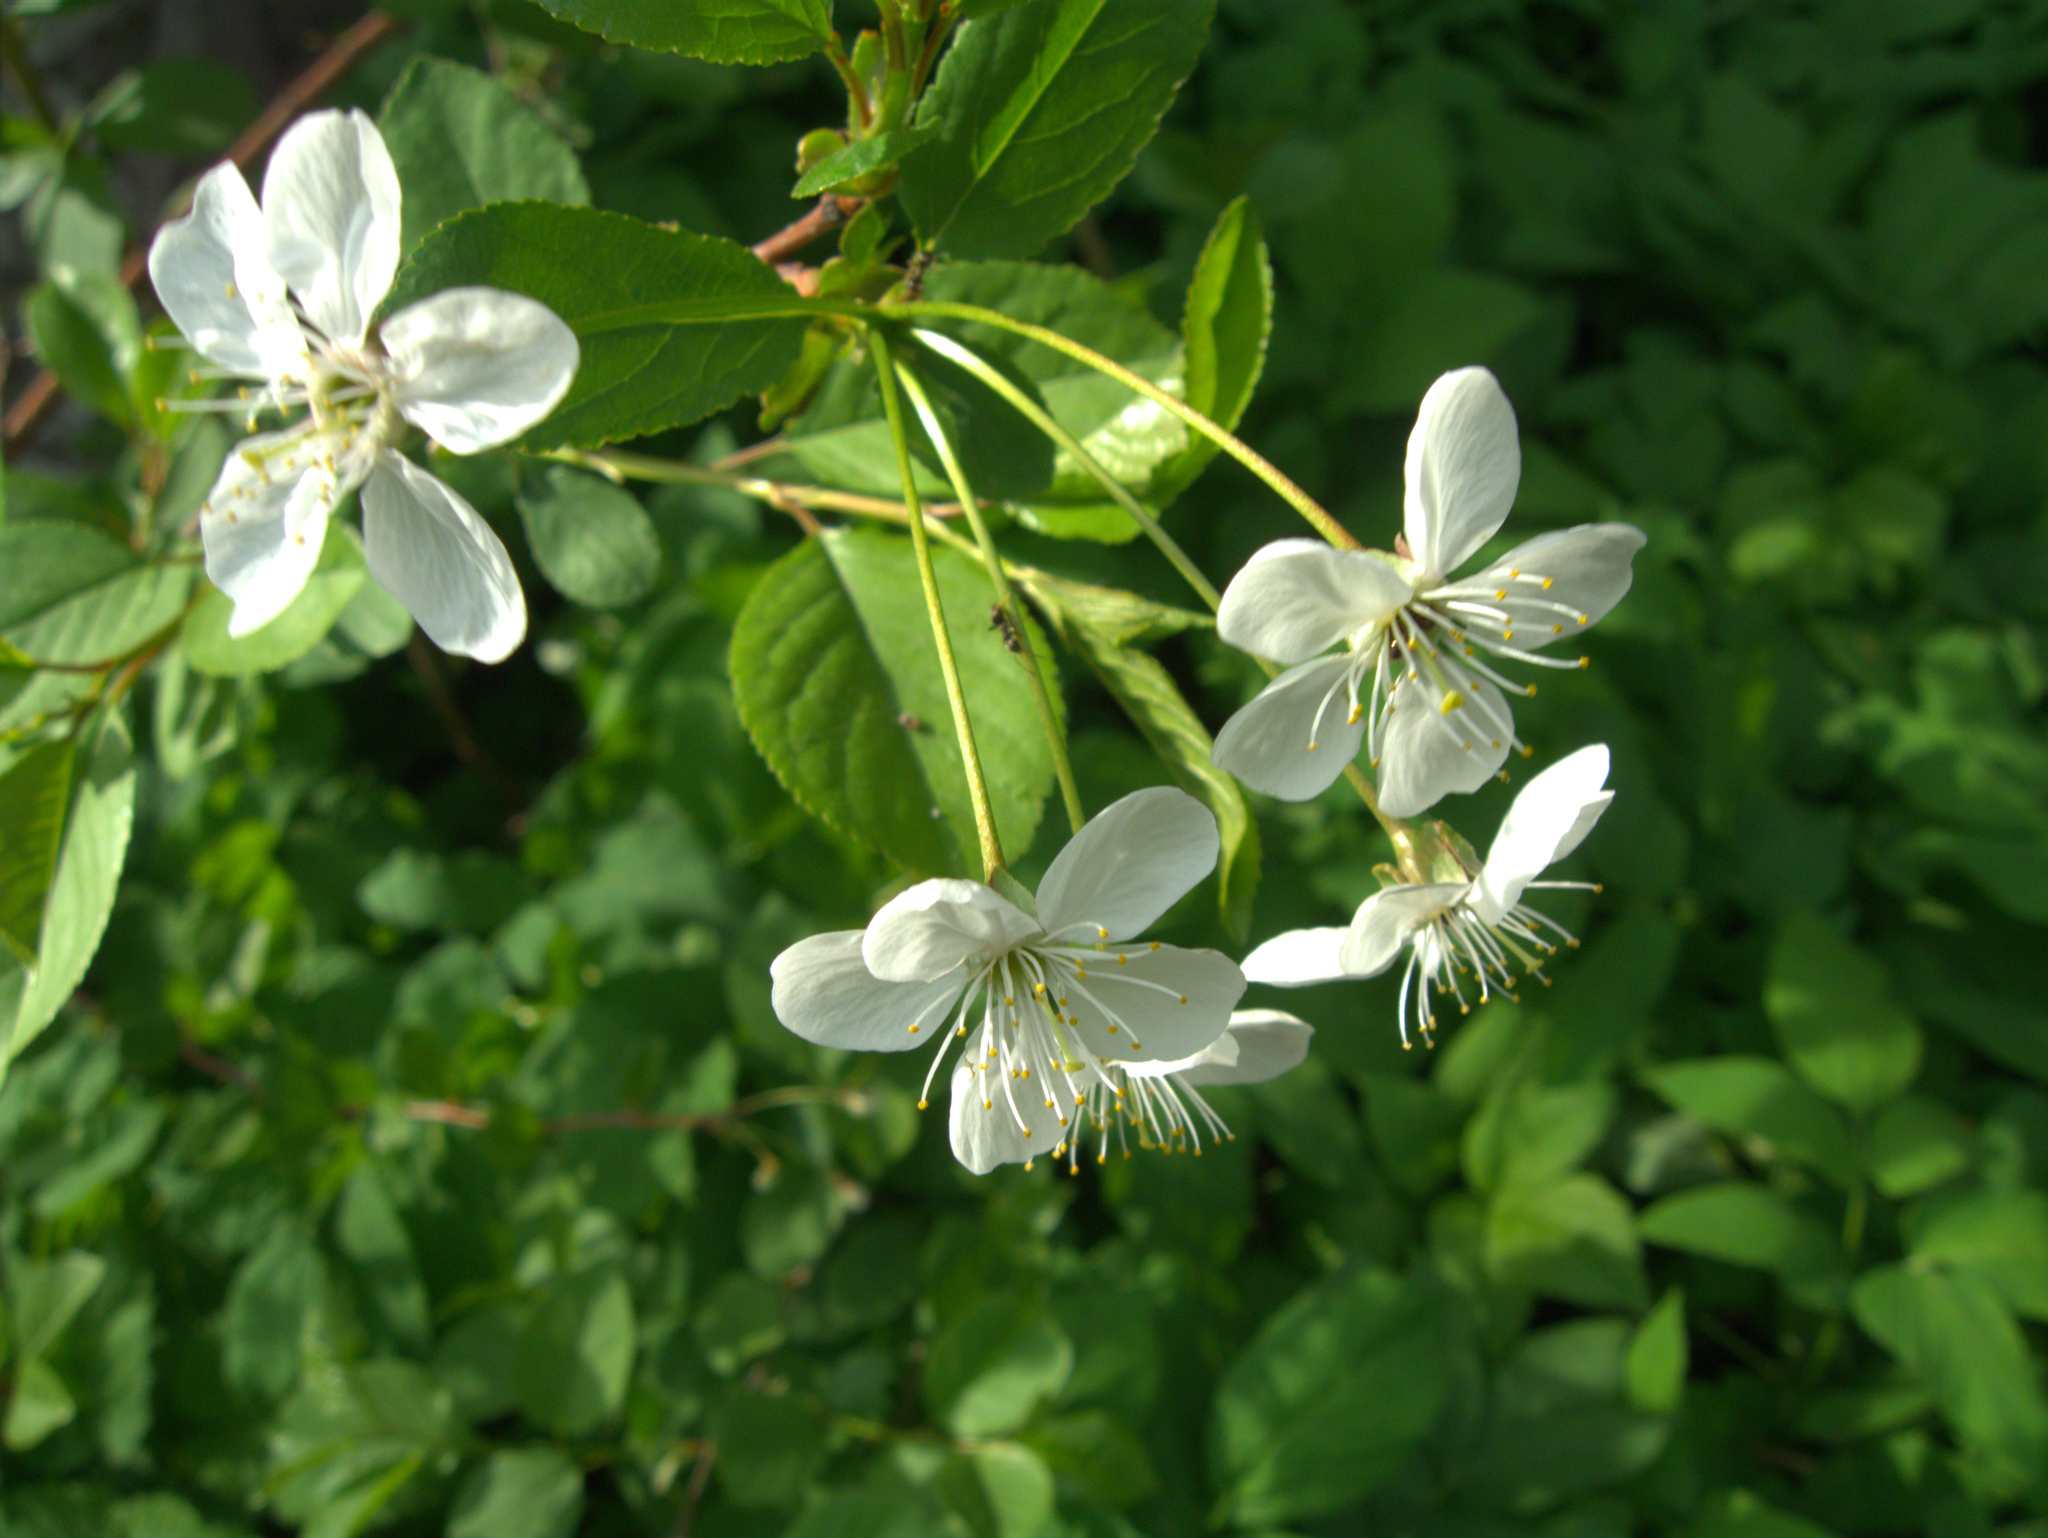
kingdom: Plantae
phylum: Tracheophyta
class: Magnoliopsida
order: Rosales
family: Rosaceae
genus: Prunus
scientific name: Prunus cerasus
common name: Morello cherry
